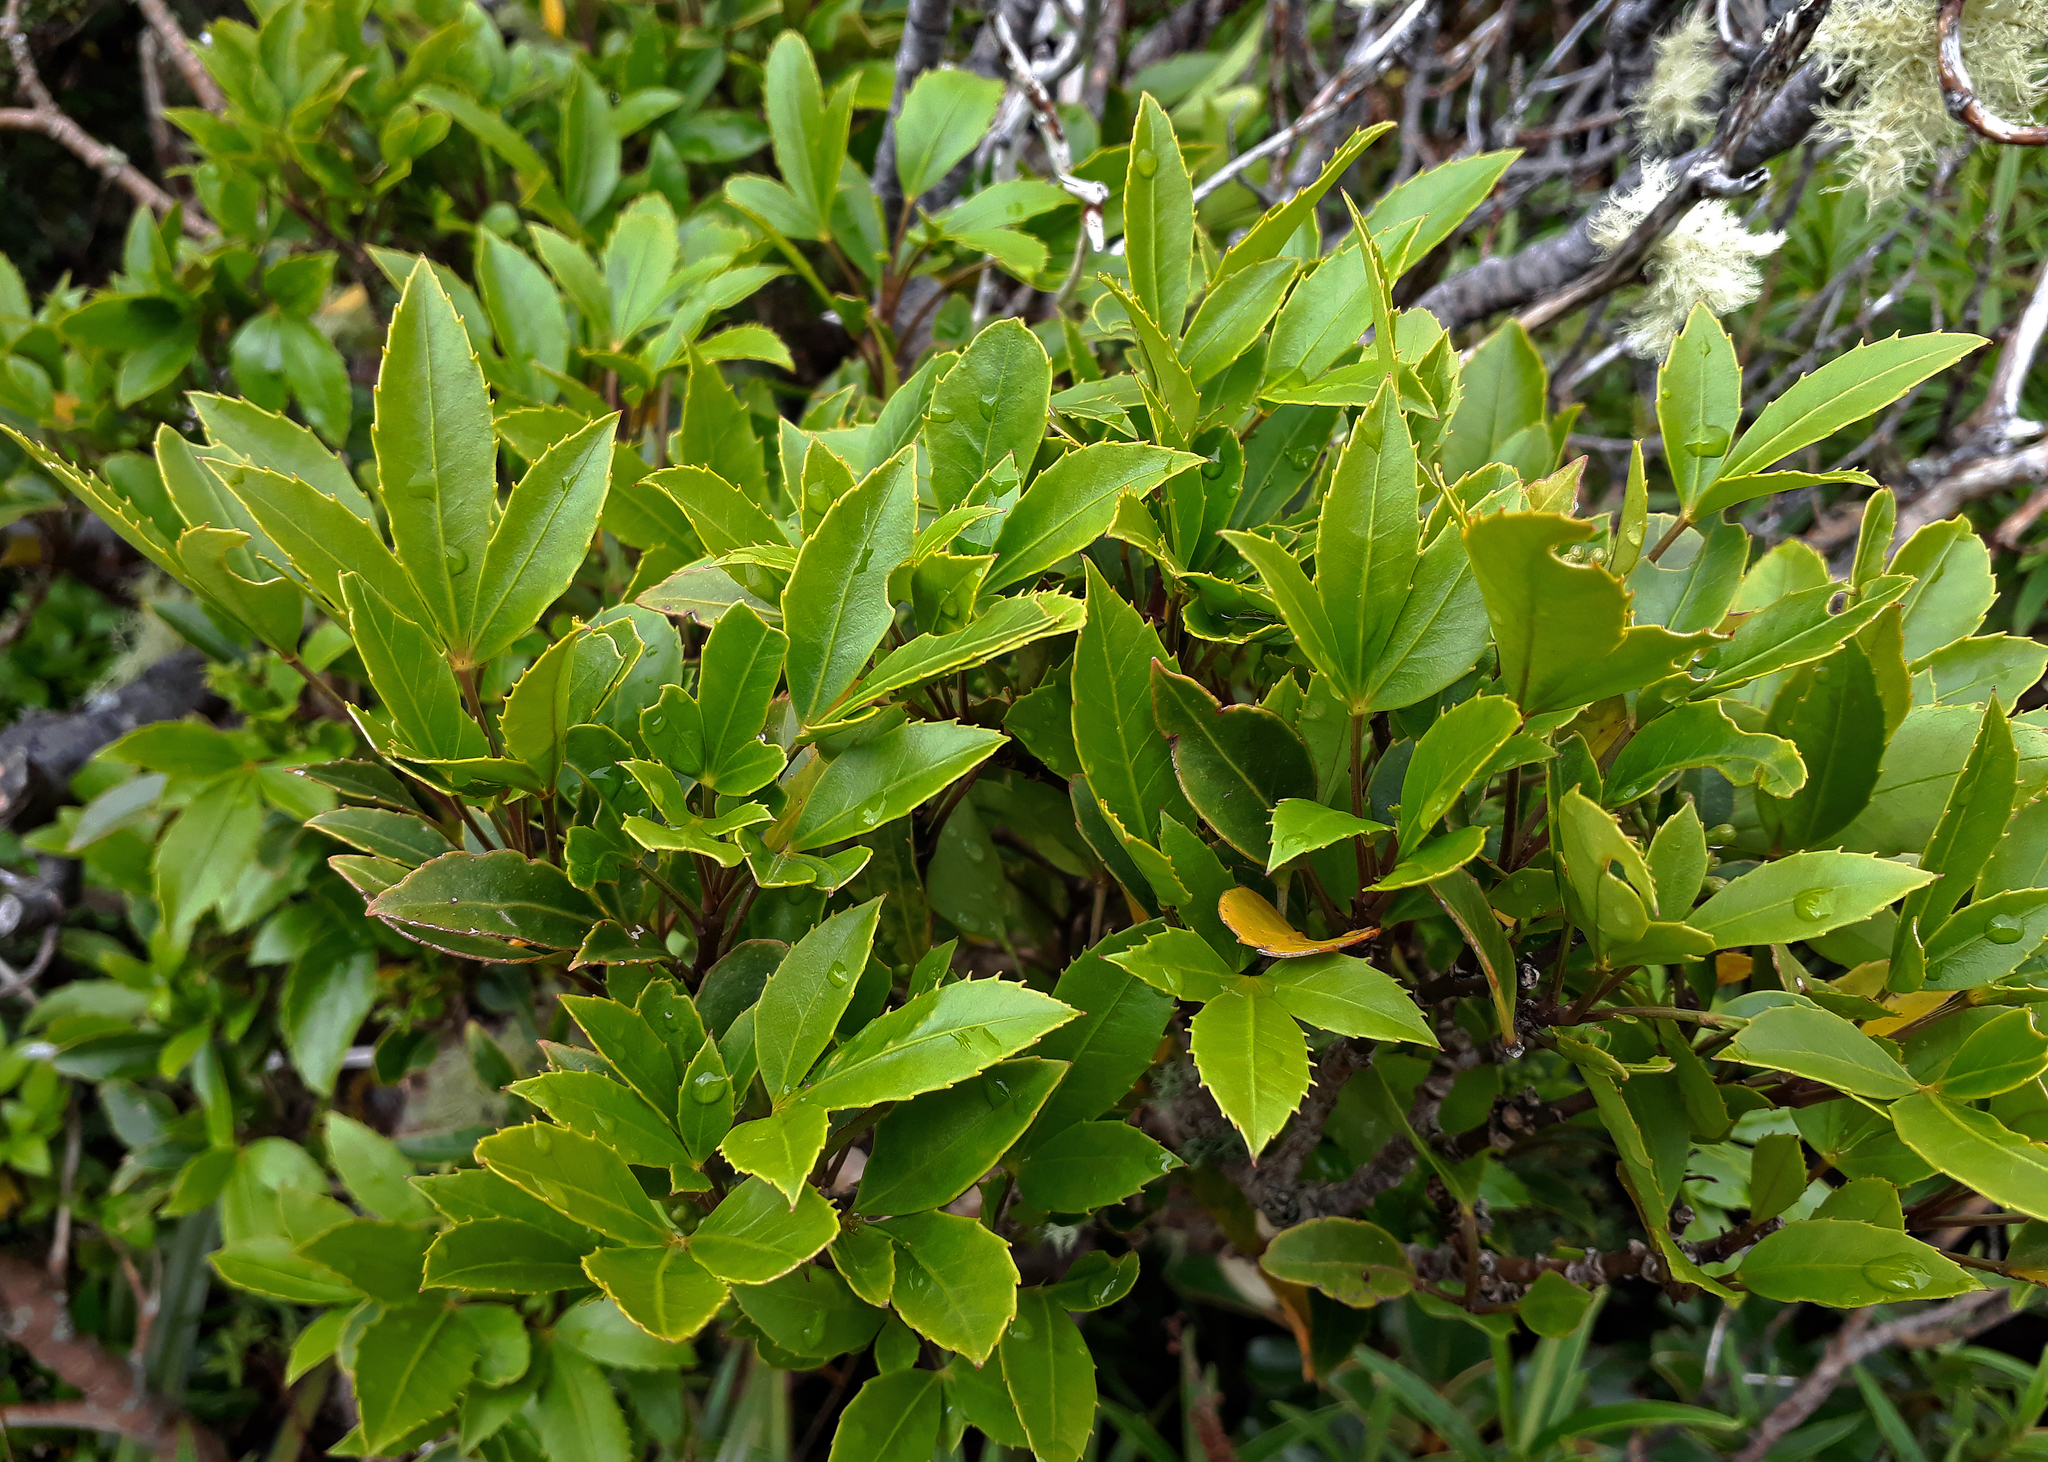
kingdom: Plantae
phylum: Tracheophyta
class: Magnoliopsida
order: Apiales
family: Araliaceae
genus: Raukaua
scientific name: Raukaua simplex
